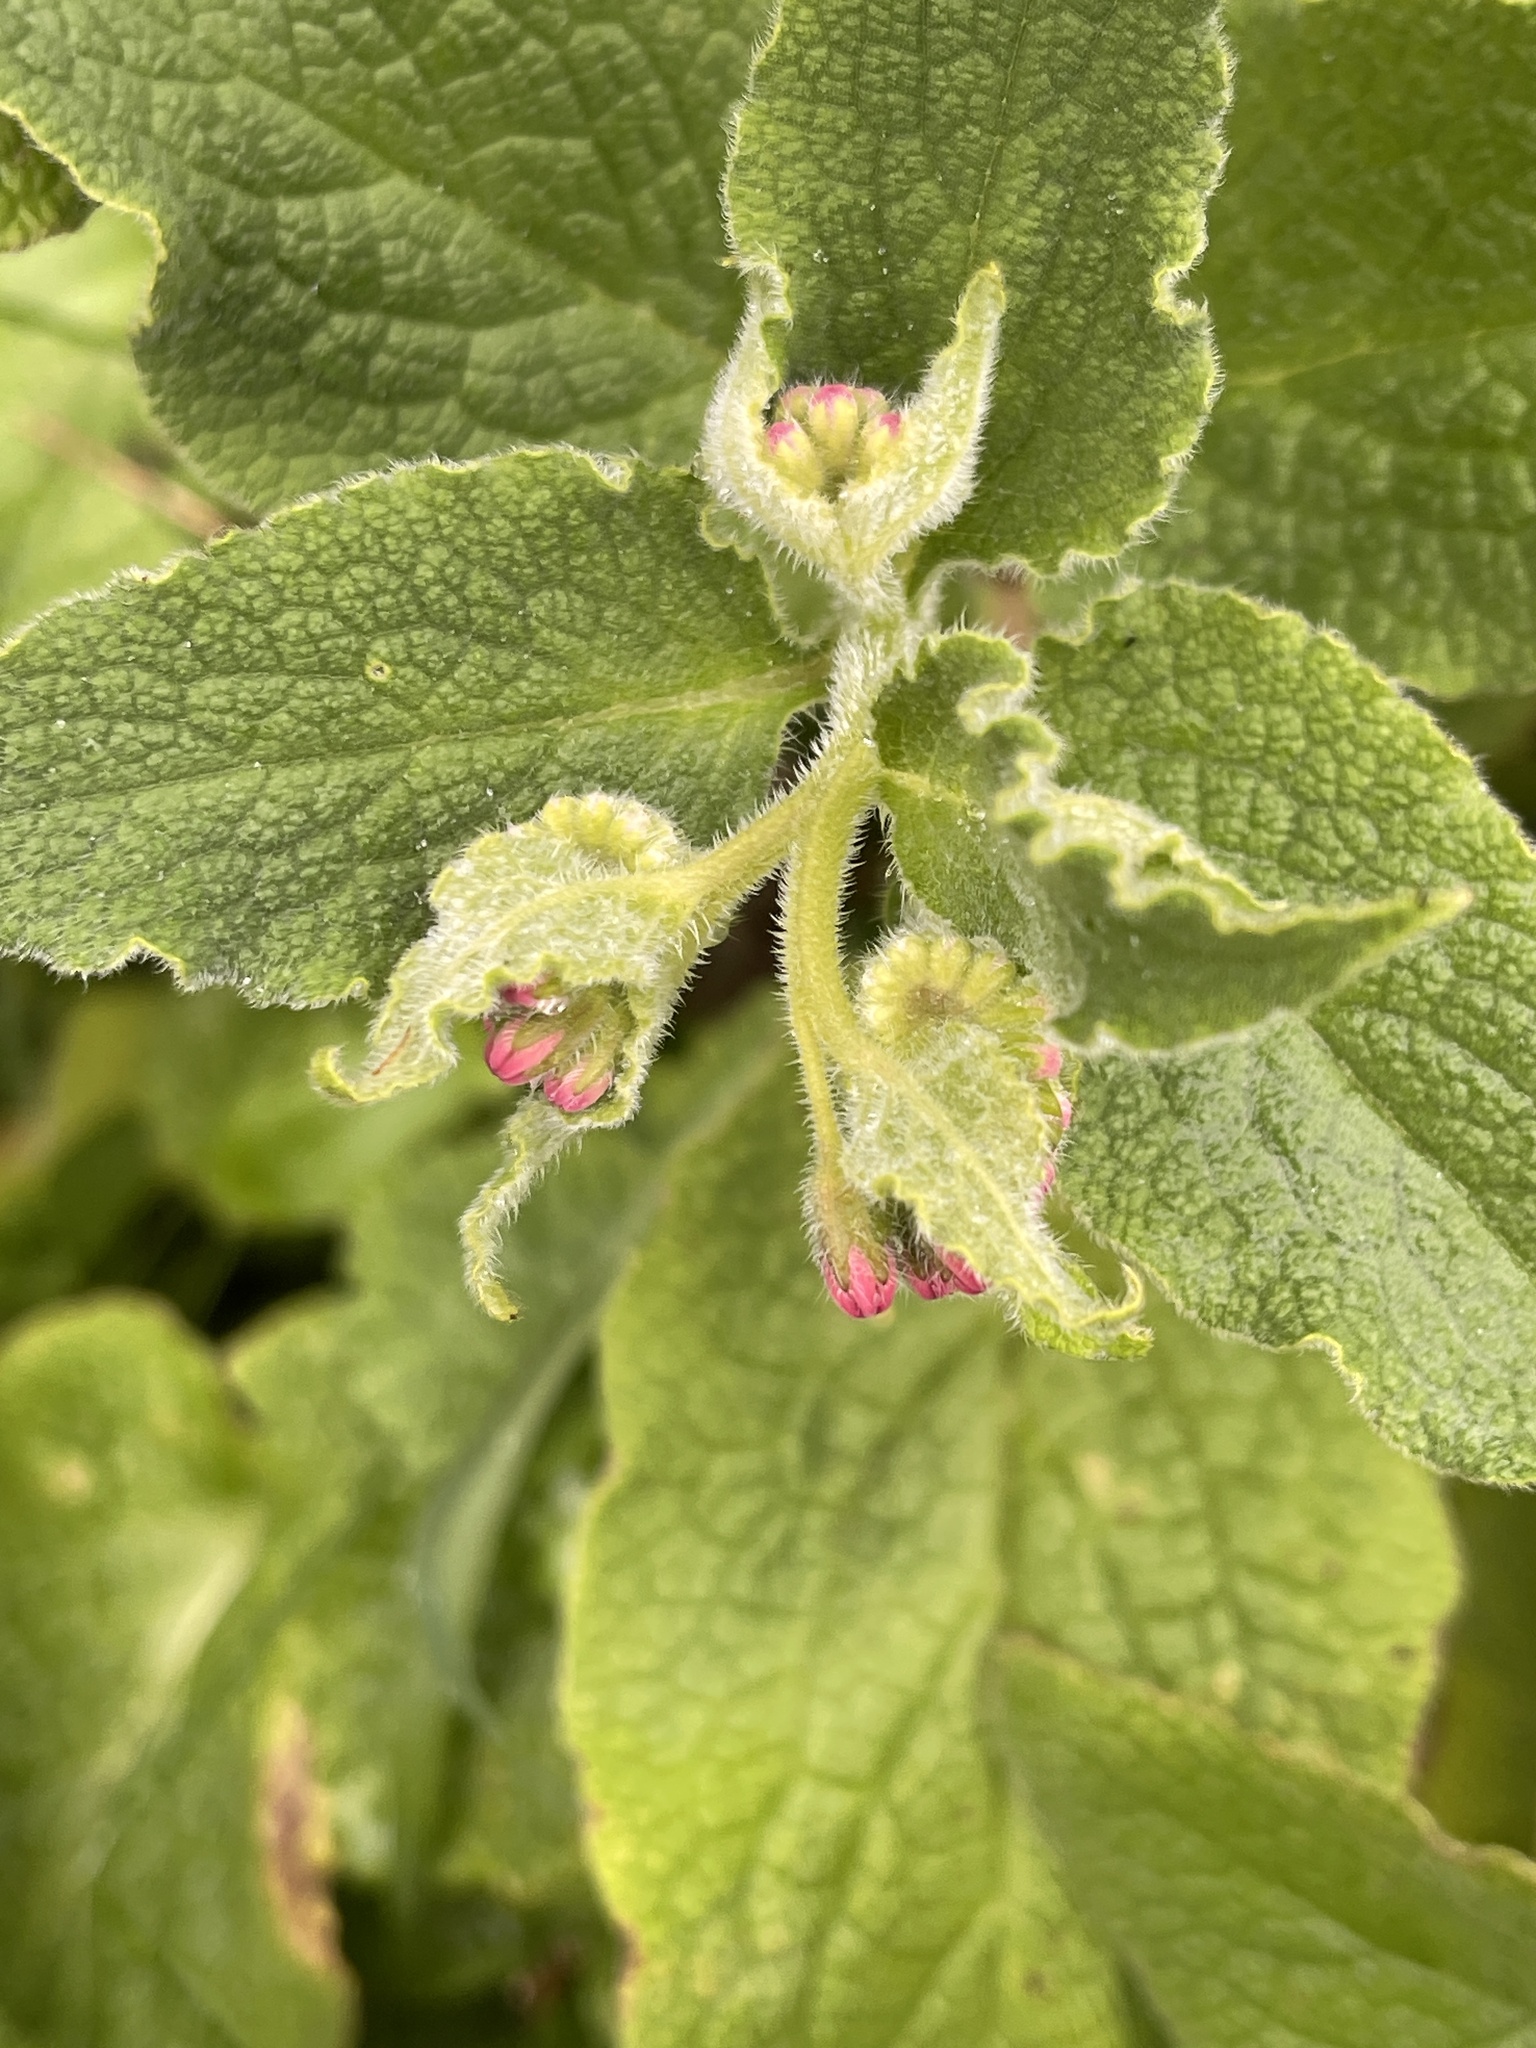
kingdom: Plantae
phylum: Tracheophyta
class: Magnoliopsida
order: Boraginales
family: Boraginaceae
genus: Symphytum
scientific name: Symphytum caucasicum
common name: Caucasian comfrey
